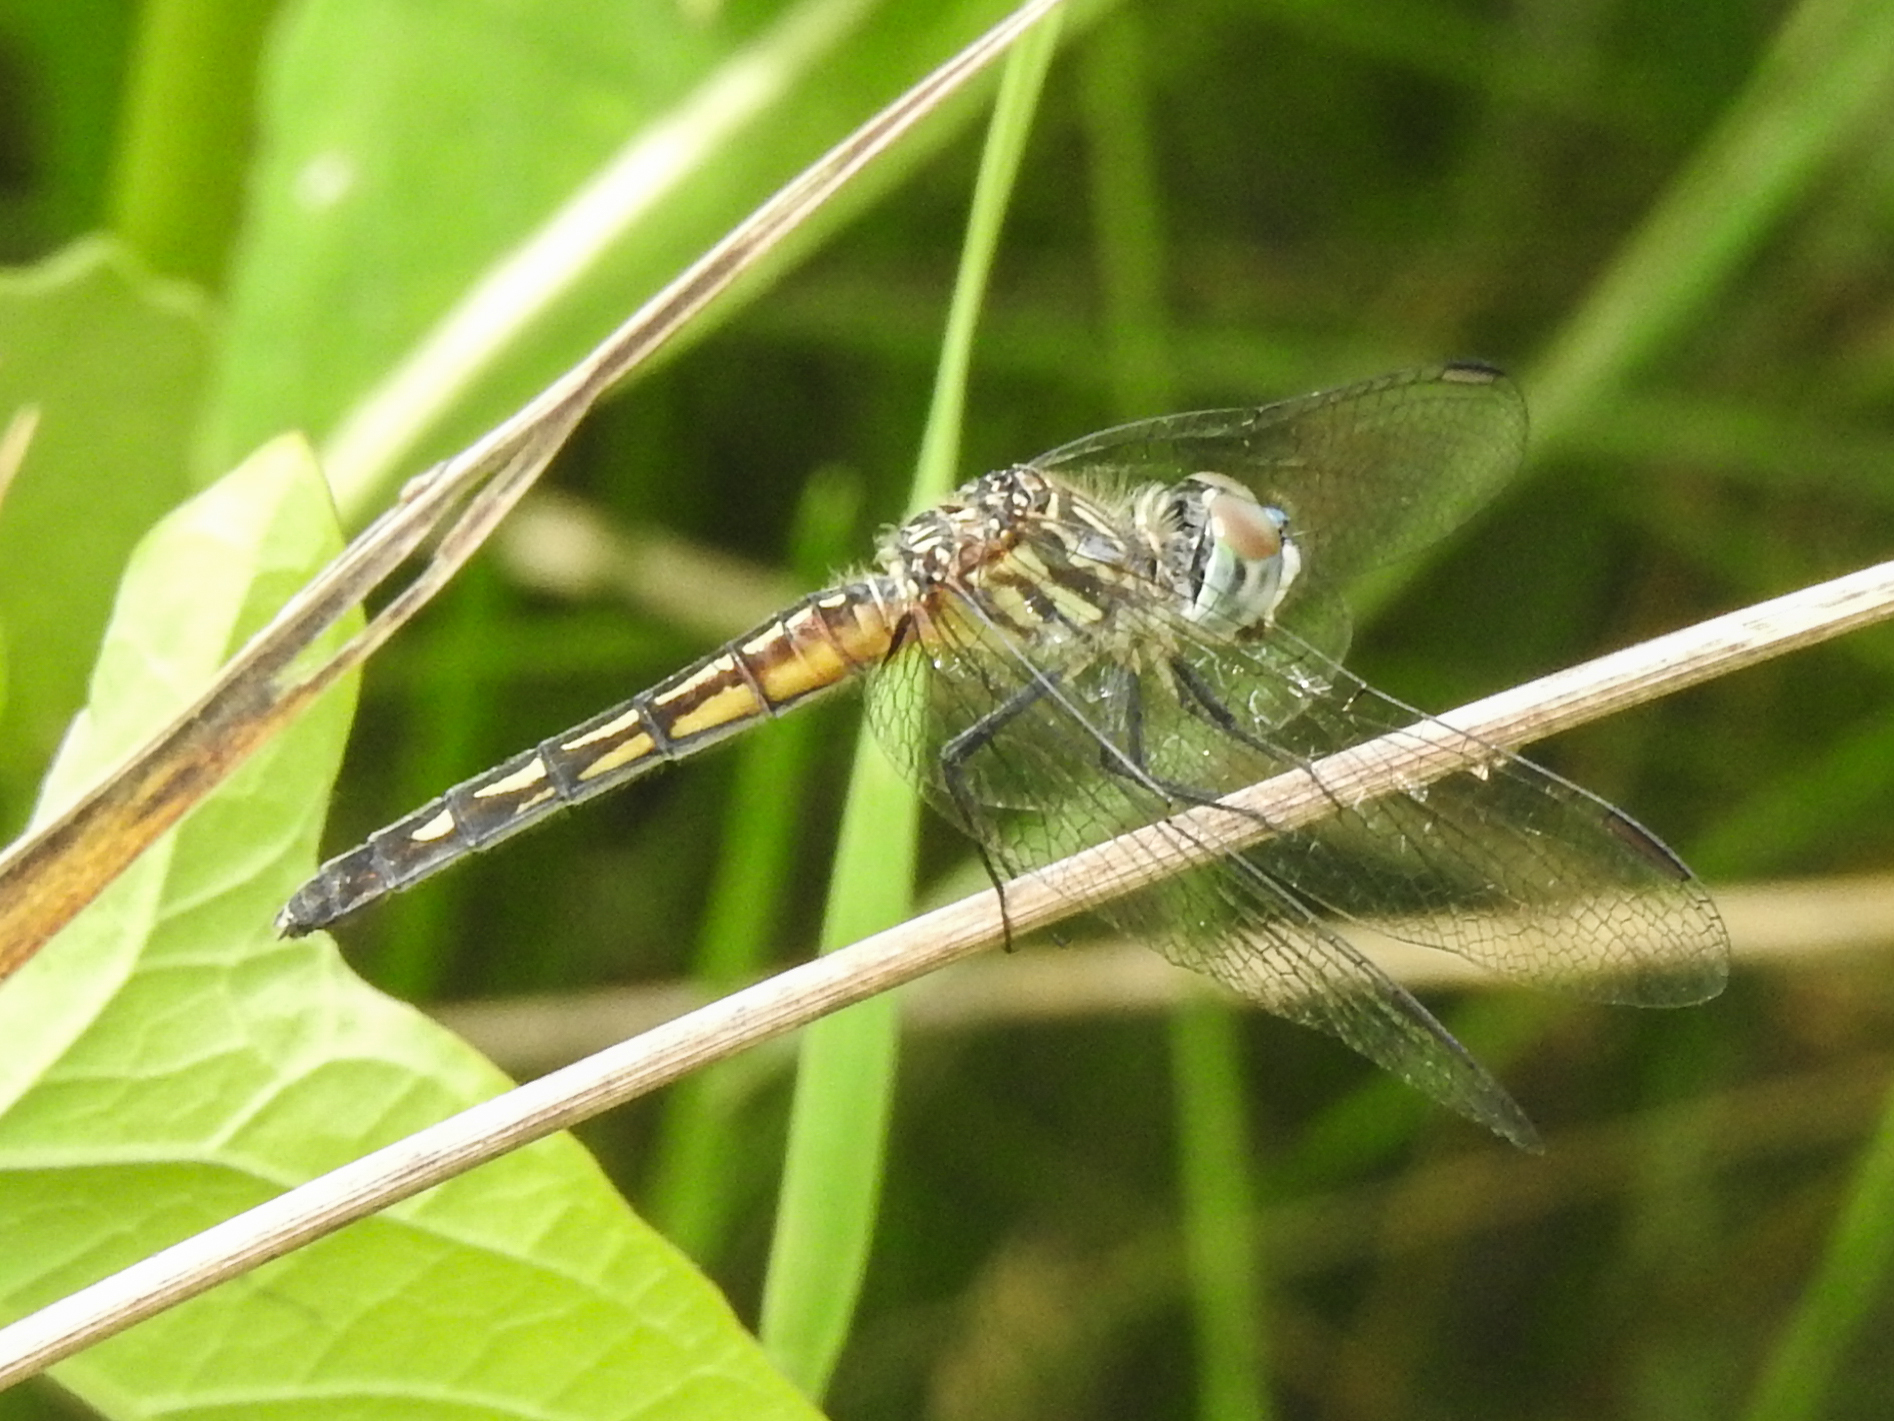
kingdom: Animalia
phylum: Arthropoda
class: Insecta
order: Odonata
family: Libellulidae
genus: Pachydiplax
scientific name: Pachydiplax longipennis
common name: Blue dasher
